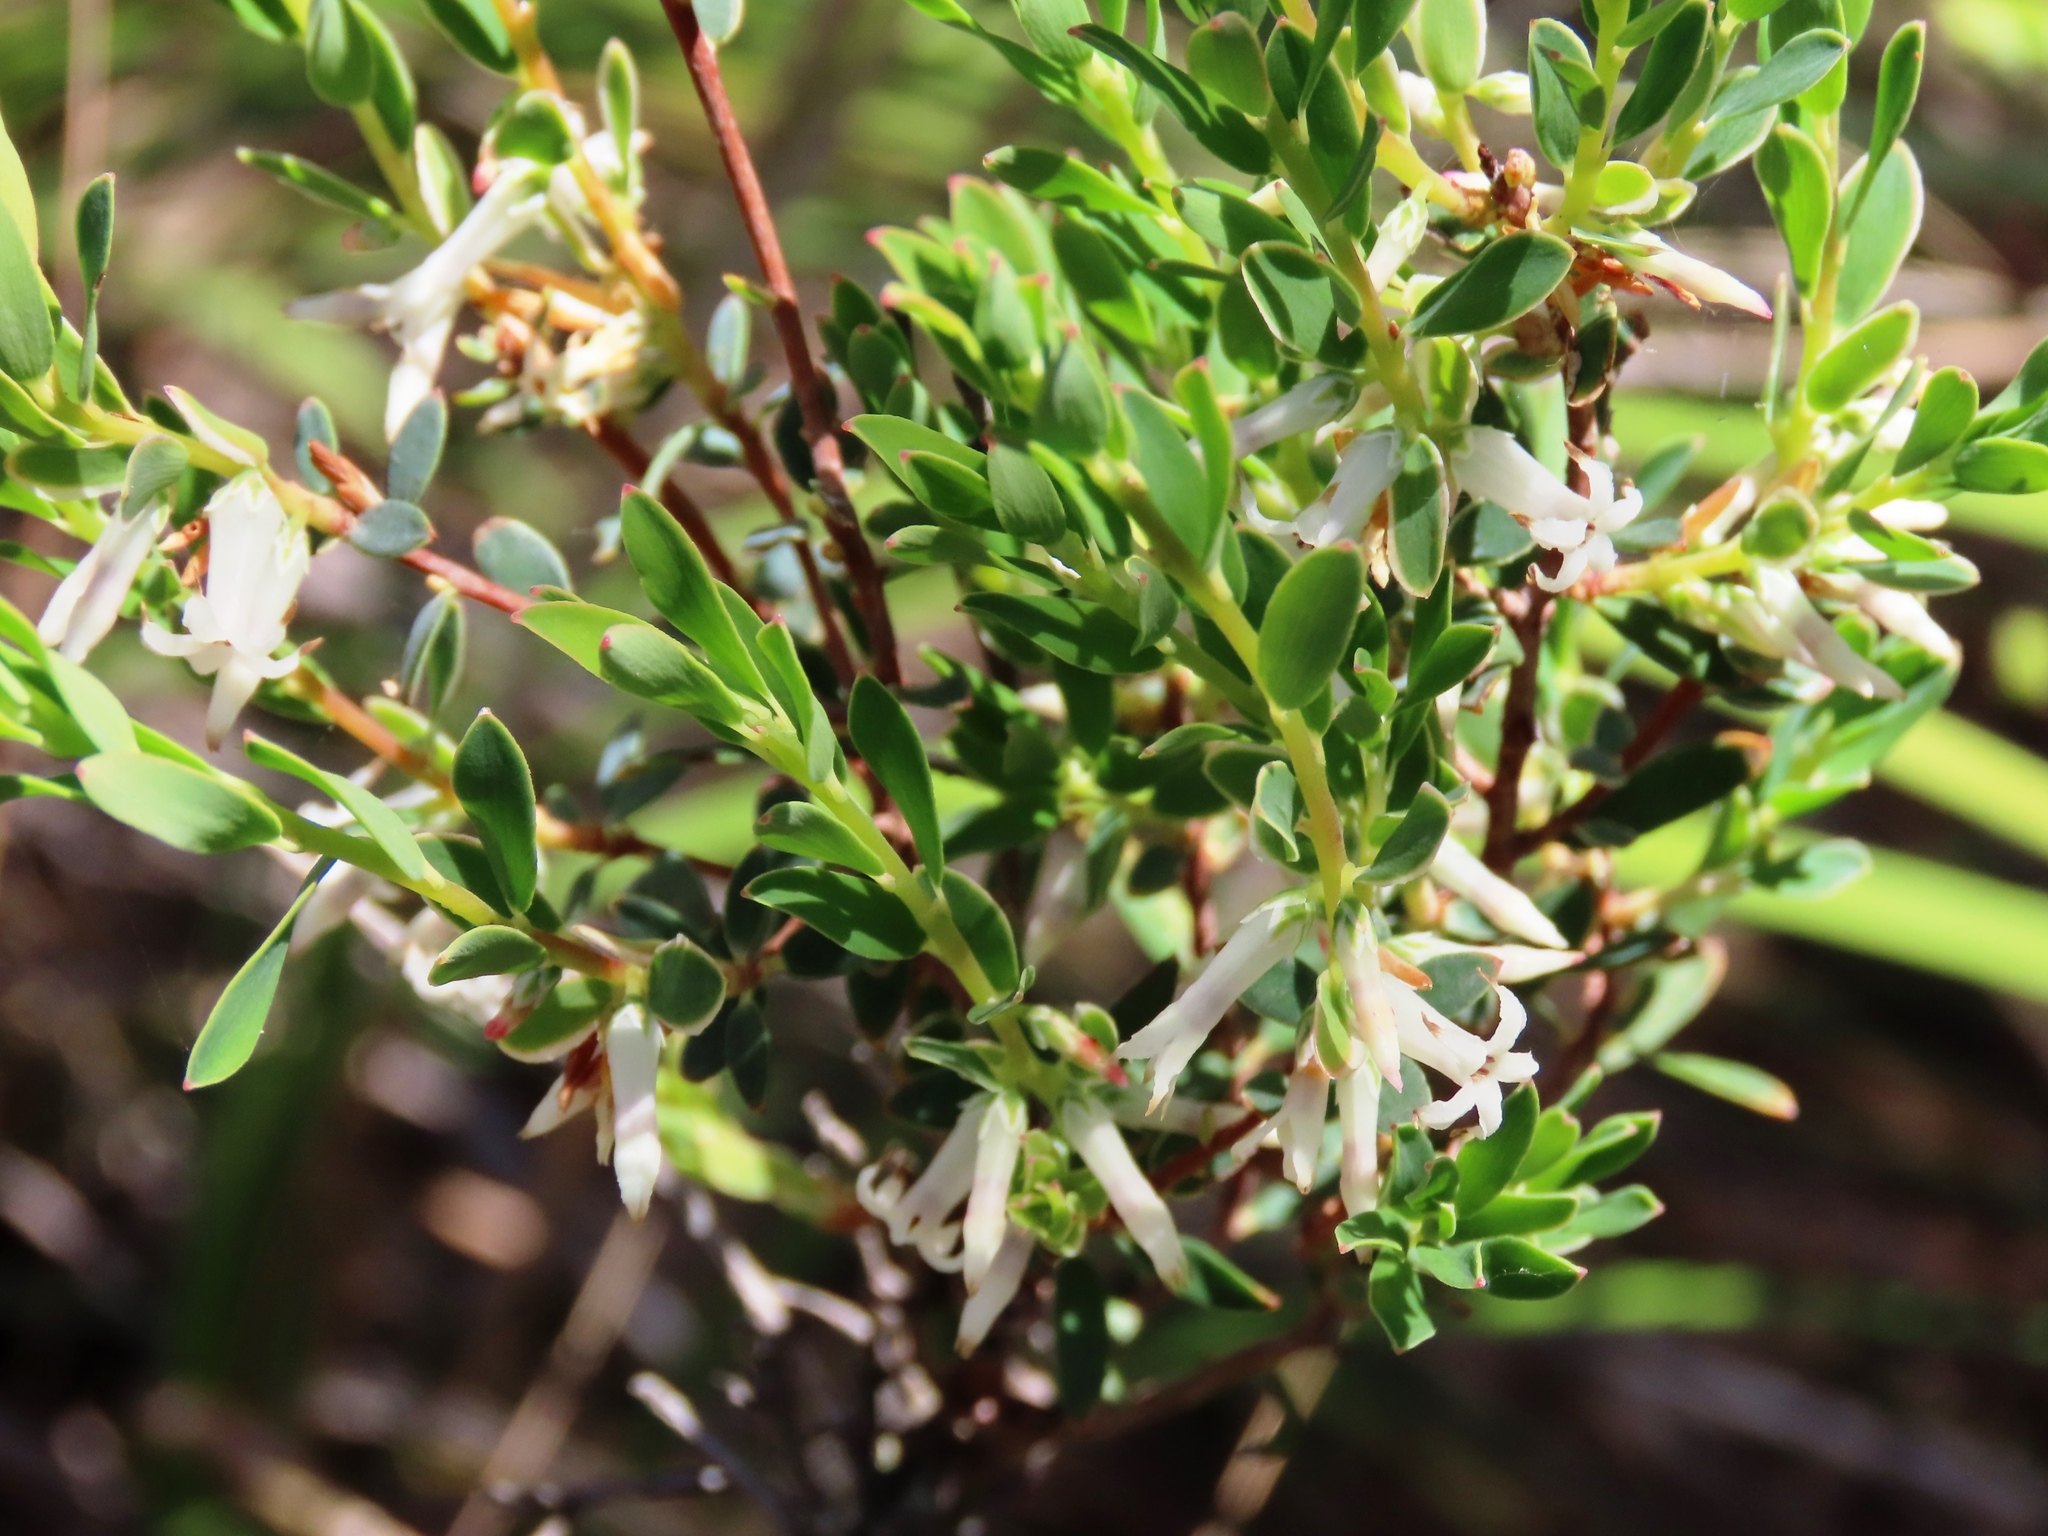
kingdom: Plantae
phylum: Tracheophyta
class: Magnoliopsida
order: Ericales
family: Ericaceae
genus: Brachyloma
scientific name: Brachyloma daphnoides
